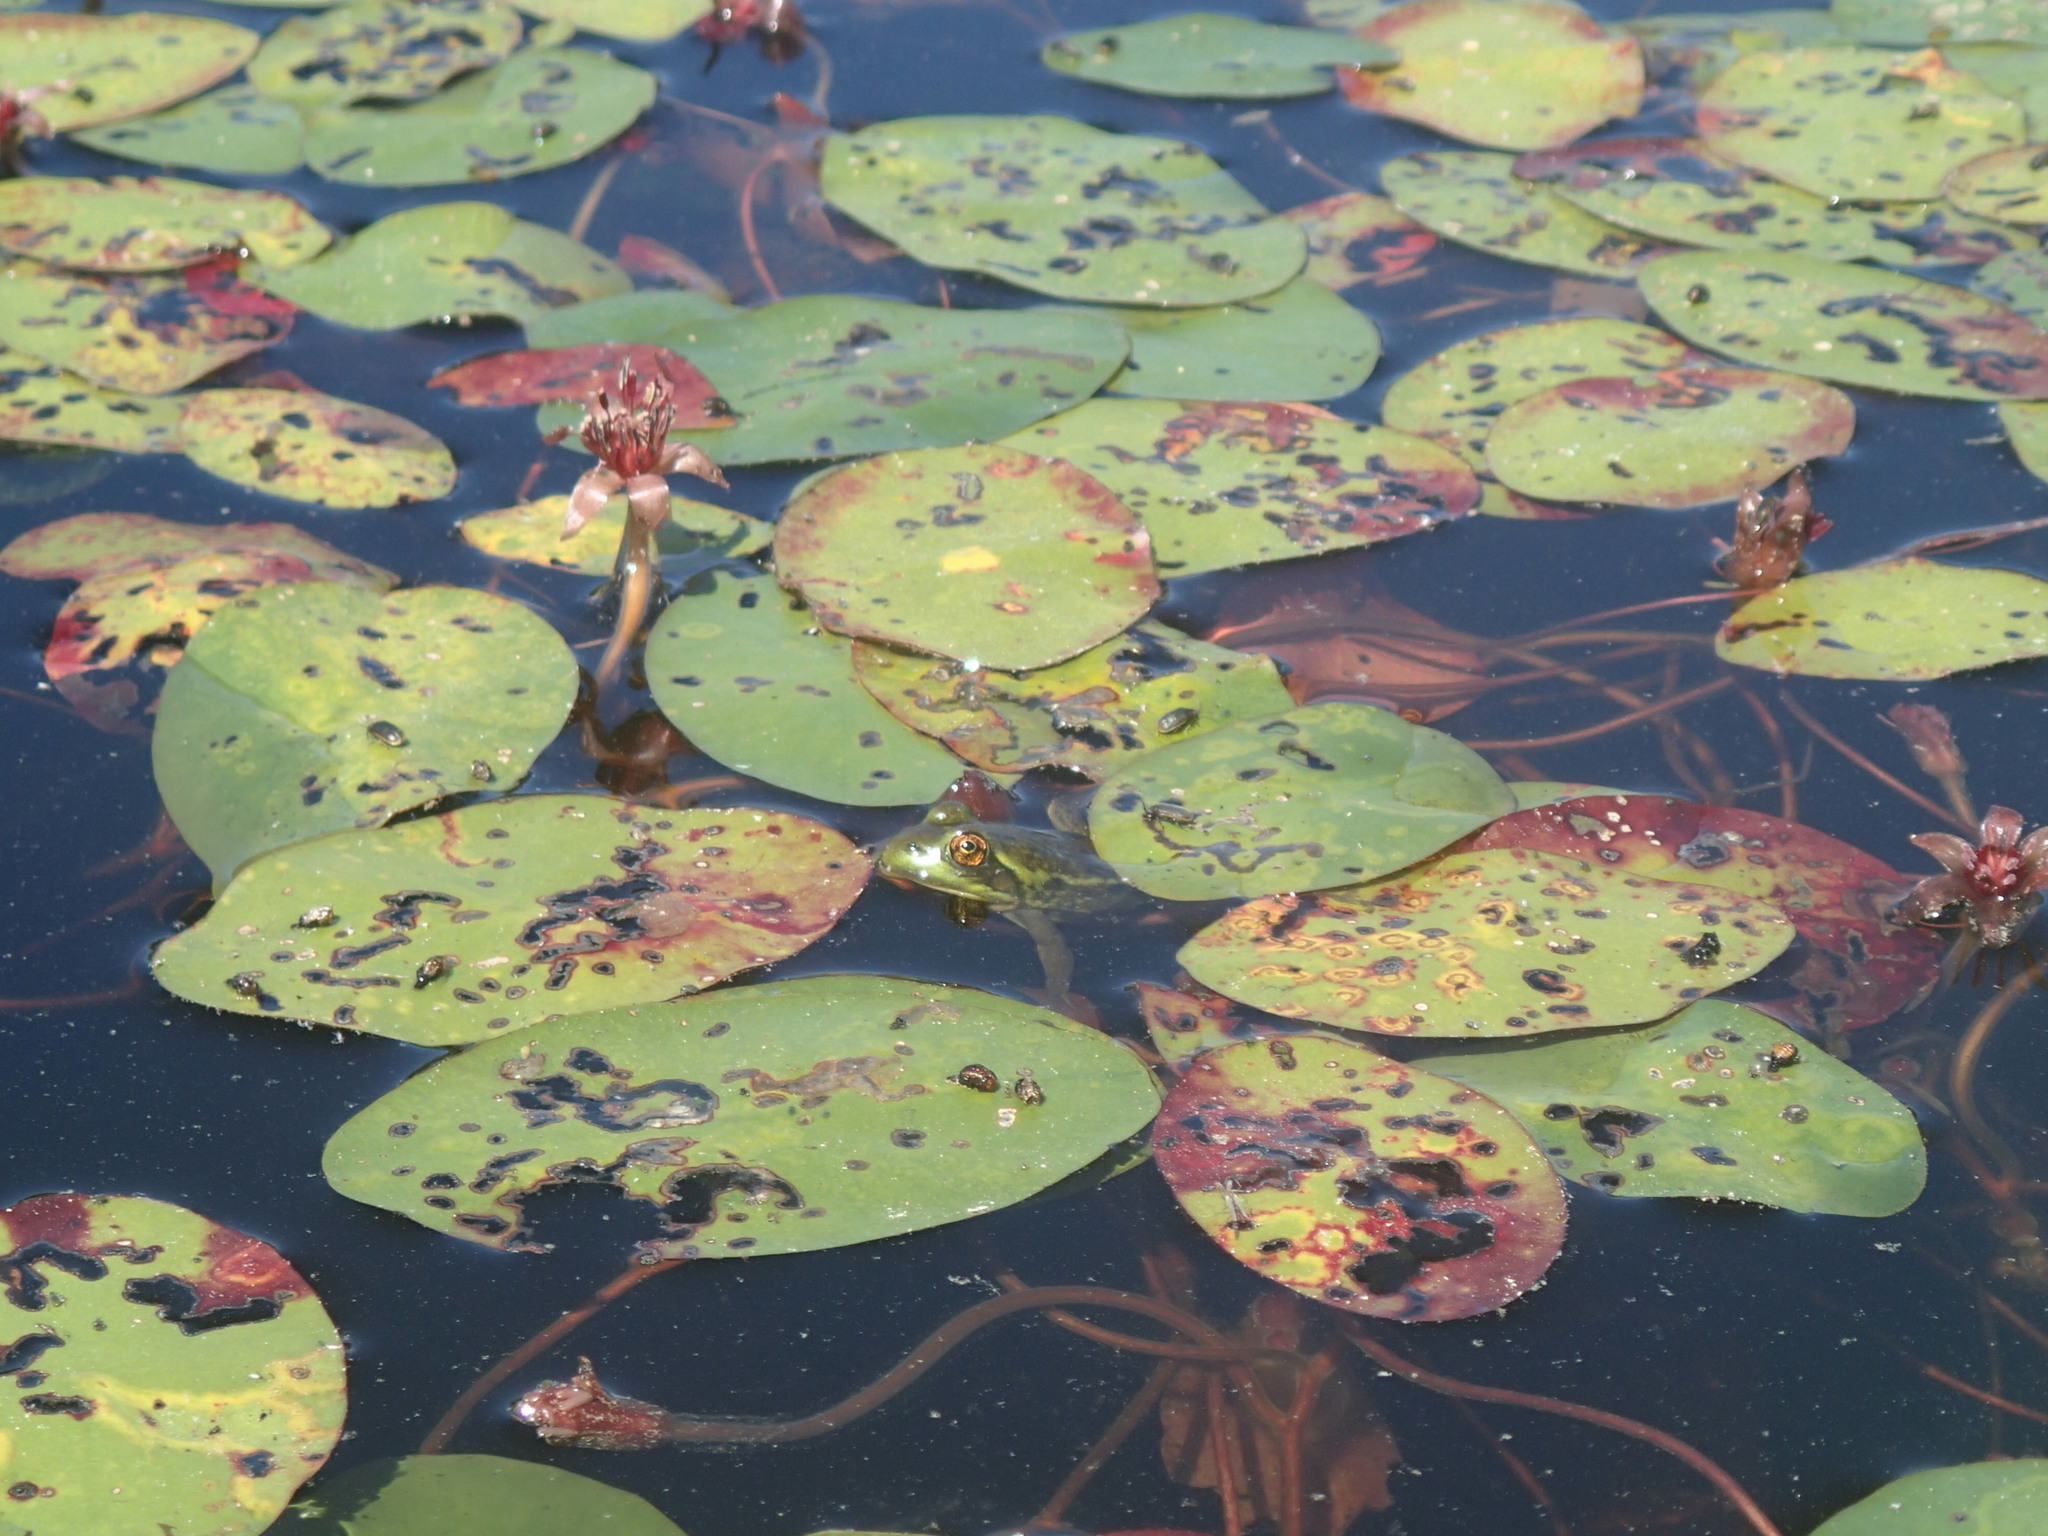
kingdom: Plantae
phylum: Tracheophyta
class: Magnoliopsida
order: Nymphaeales
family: Cabombaceae
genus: Brasenia
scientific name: Brasenia schreberi
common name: Water-shield
